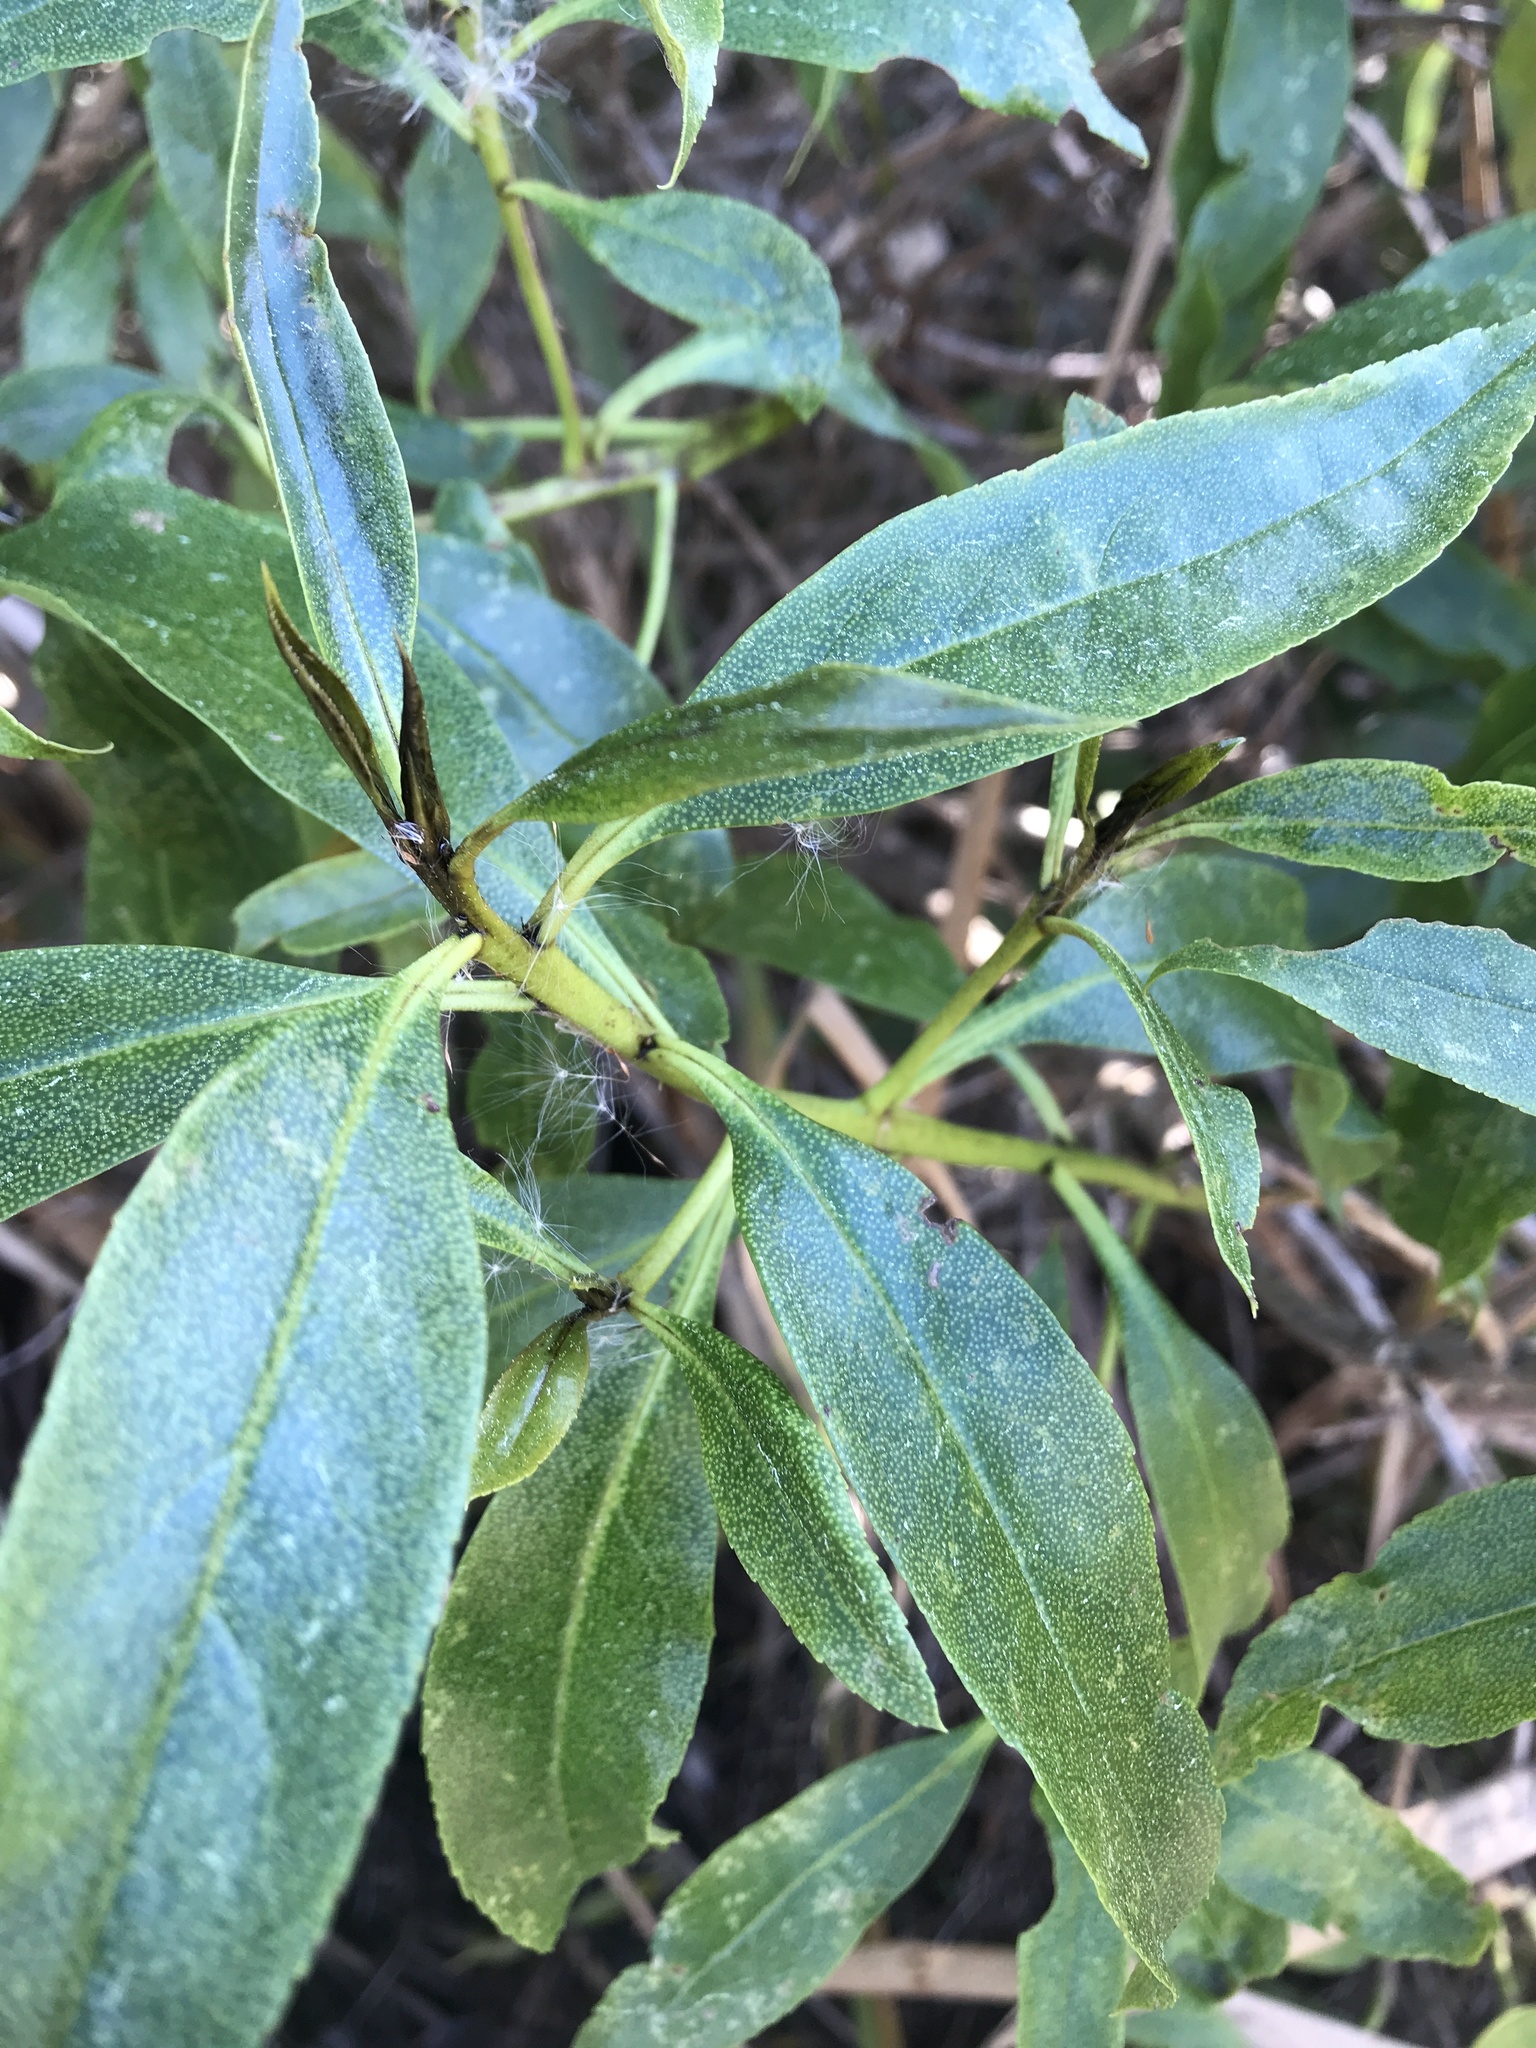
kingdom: Plantae
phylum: Tracheophyta
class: Magnoliopsida
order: Lamiales
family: Scrophulariaceae
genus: Myoporum
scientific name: Myoporum laetum
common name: Ngaio tree
